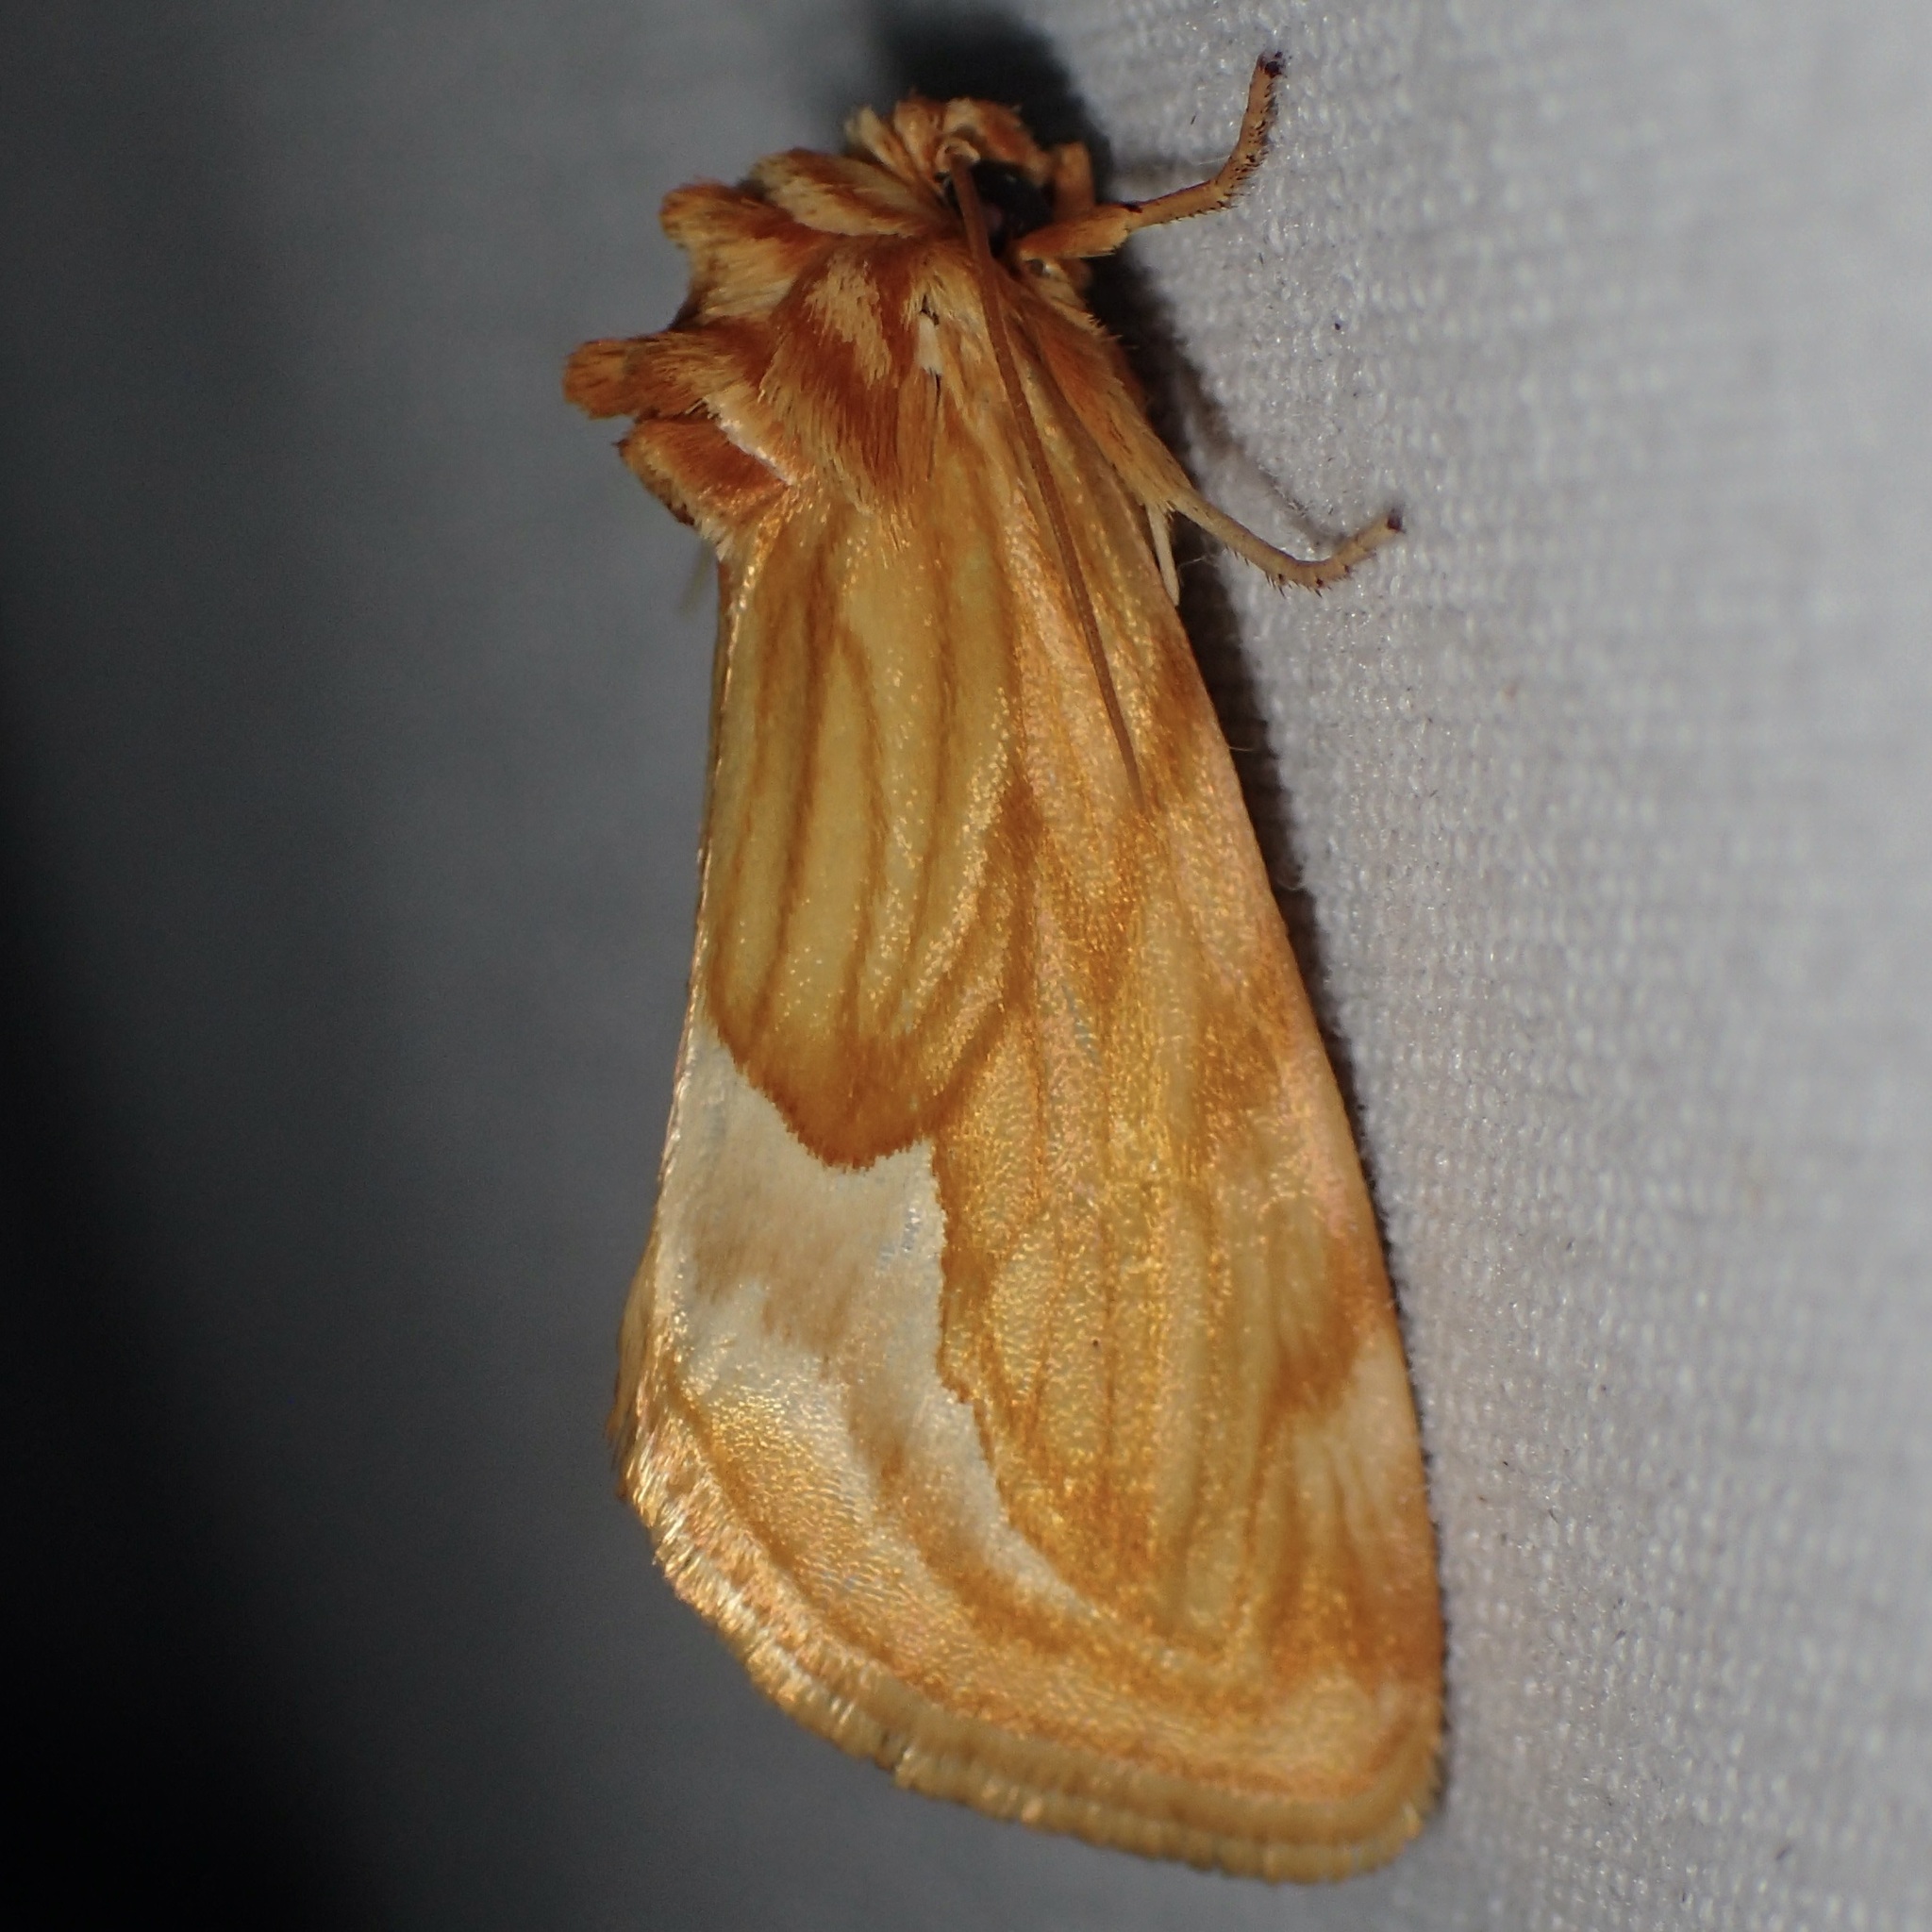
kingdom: Animalia
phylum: Arthropoda
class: Insecta
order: Lepidoptera
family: Noctuidae
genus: Cirrhophanus
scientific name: Cirrhophanus dyari
